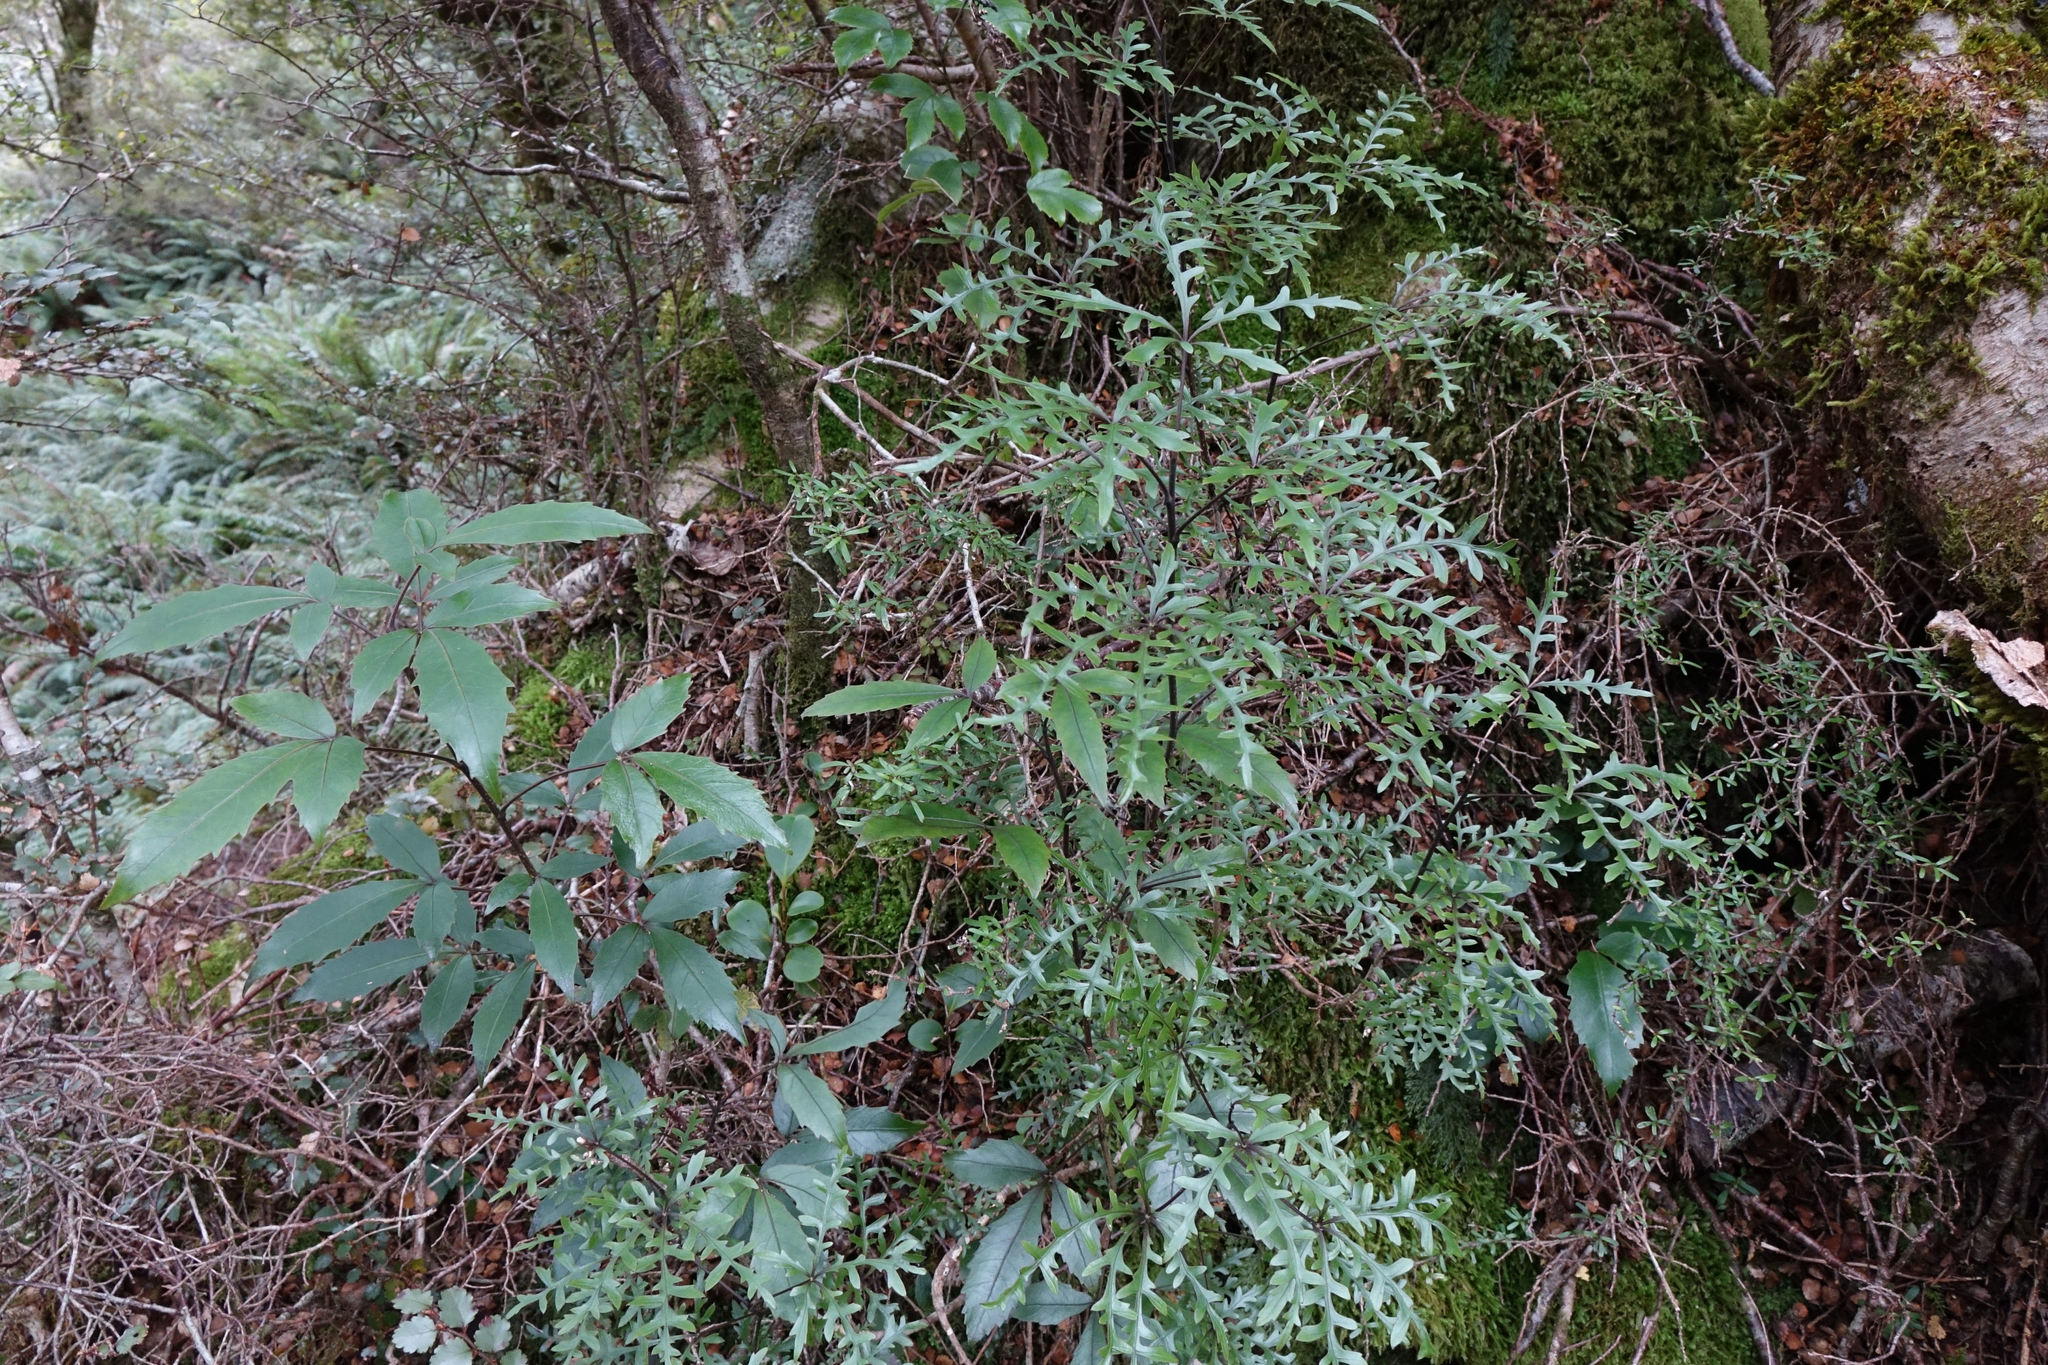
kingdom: Plantae
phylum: Tracheophyta
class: Magnoliopsida
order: Apiales
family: Araliaceae
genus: Raukaua
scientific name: Raukaua simplex
